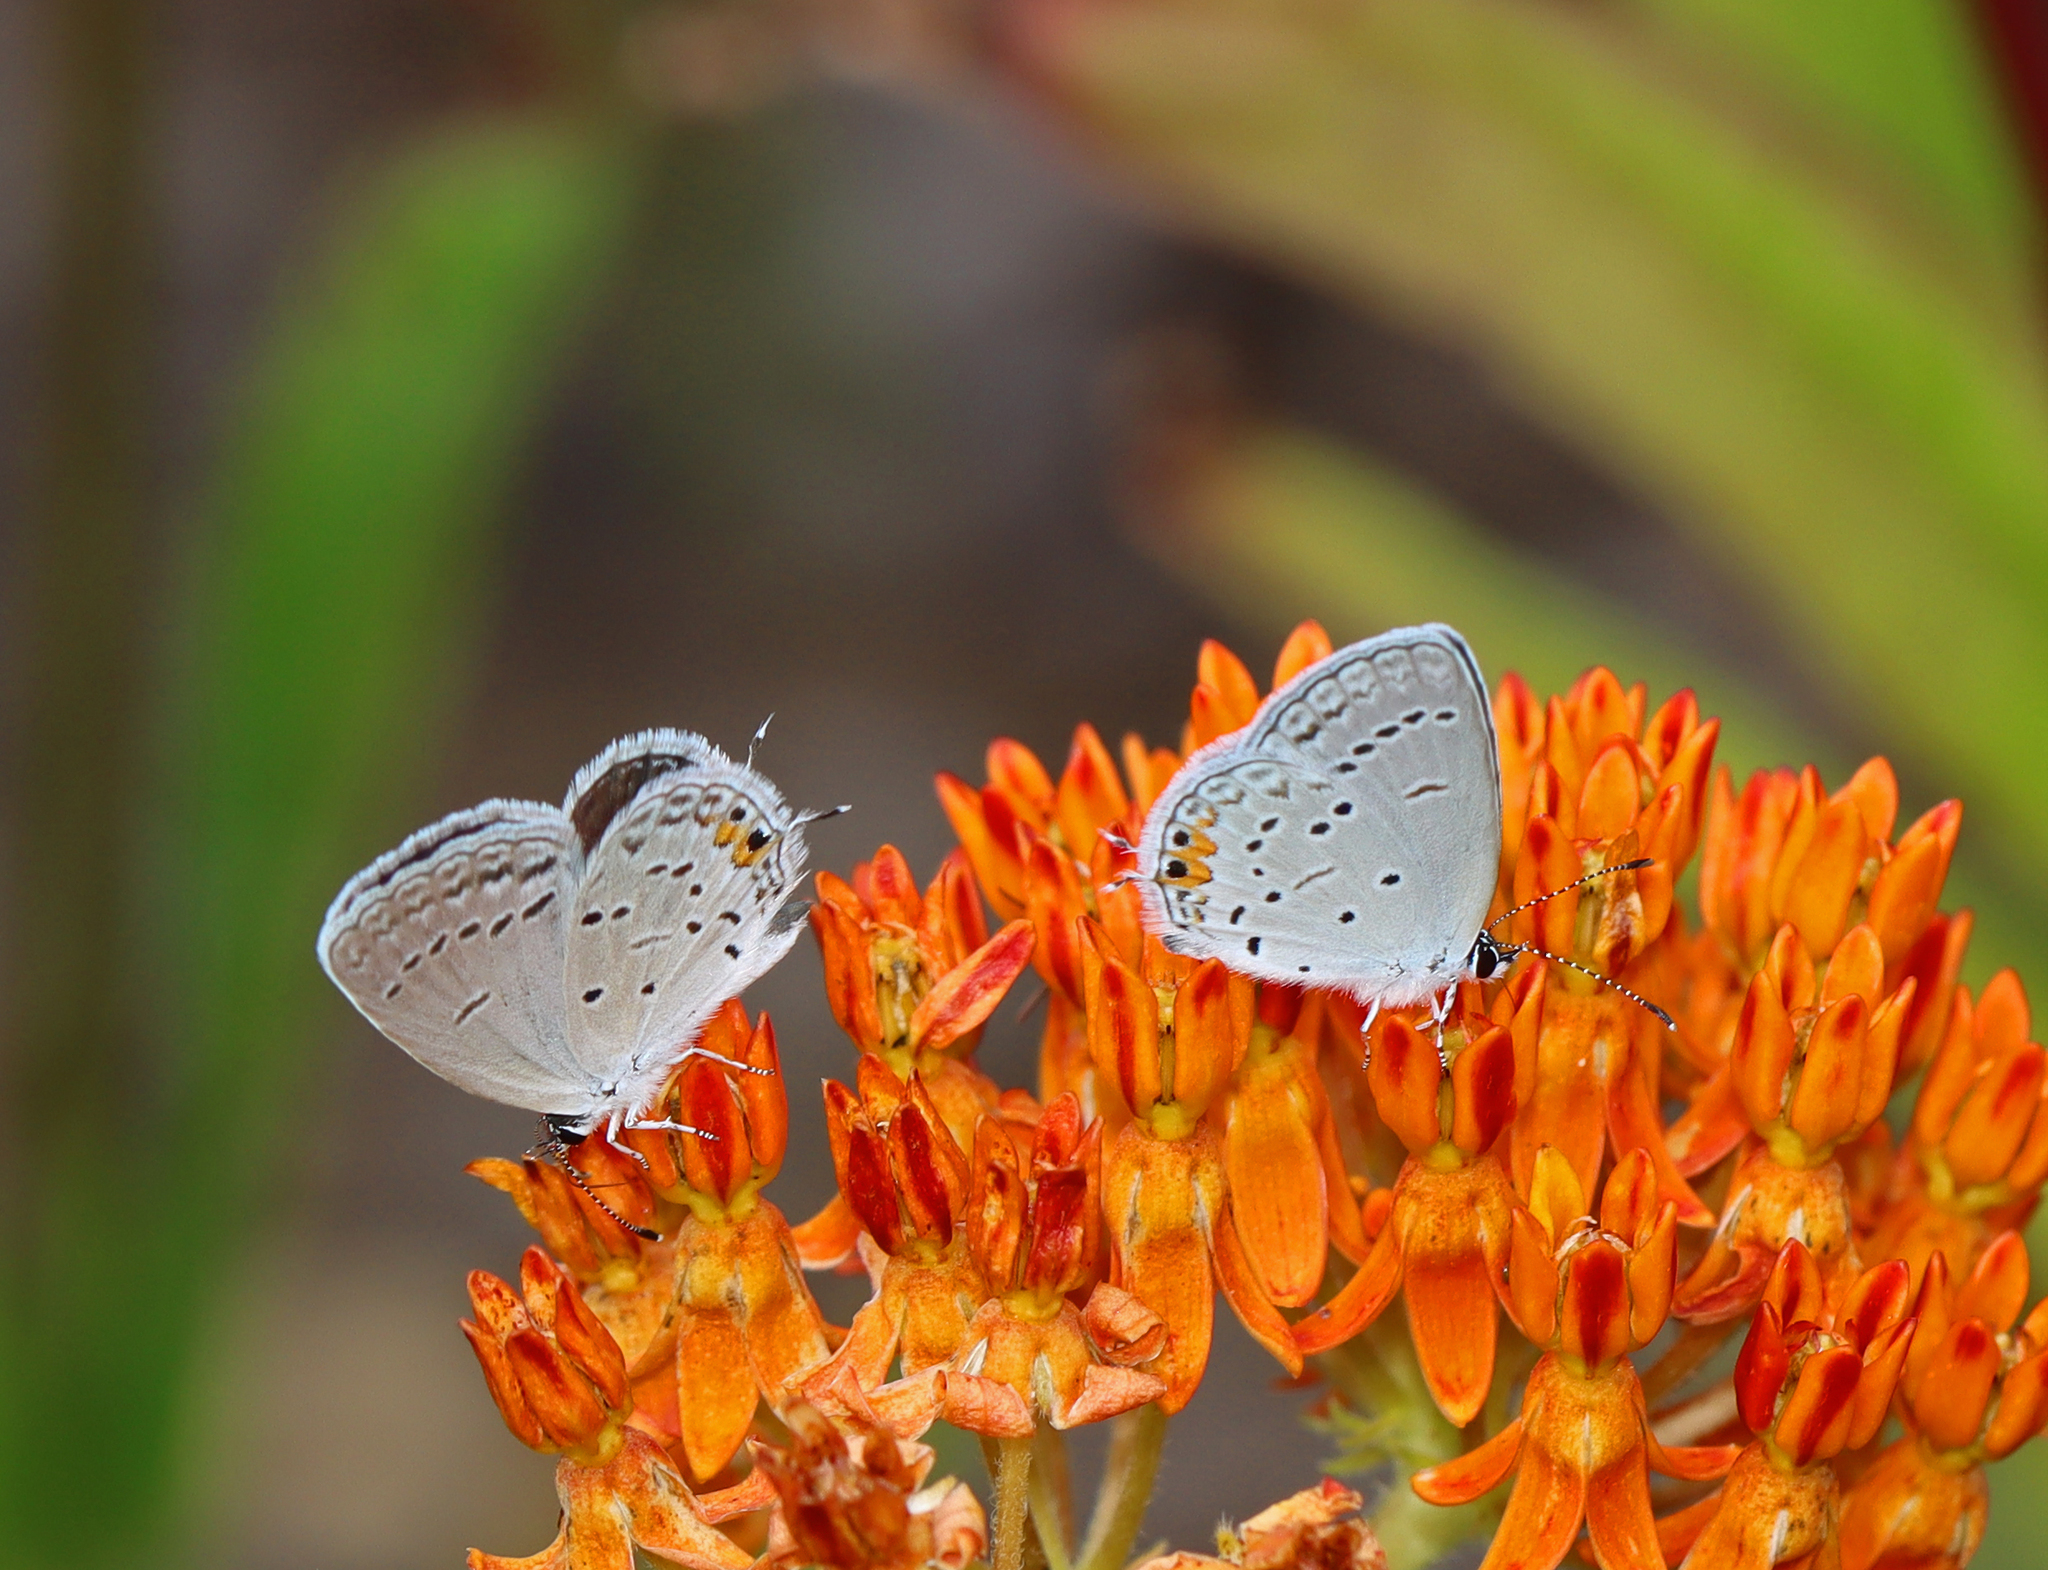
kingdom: Animalia
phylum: Arthropoda
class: Insecta
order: Lepidoptera
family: Lycaenidae
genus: Elkalyce
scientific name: Elkalyce comyntas
